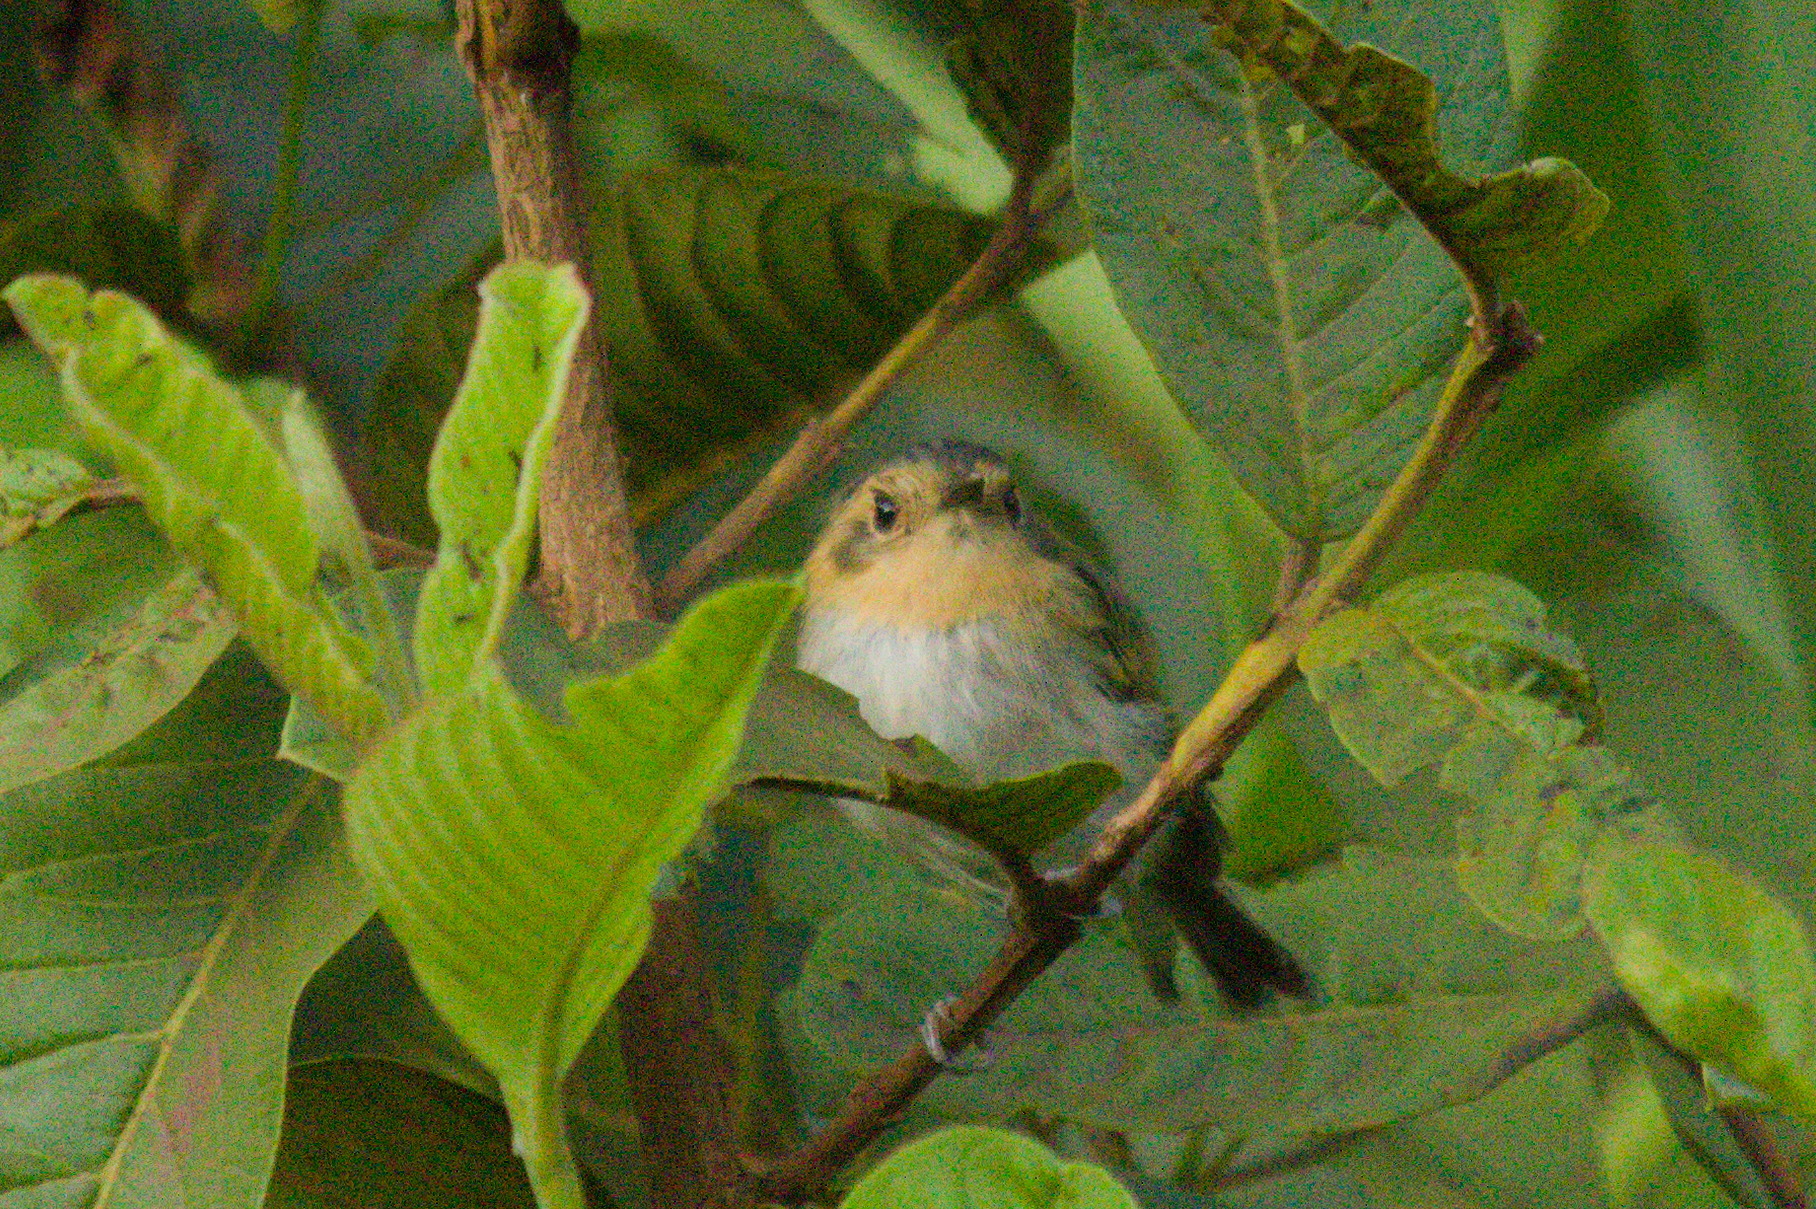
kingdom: Animalia
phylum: Chordata
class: Aves
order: Passeriformes
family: Tyrannidae
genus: Poecilotriccus
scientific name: Poecilotriccus plumbeiceps
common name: Ochre-faced tody-flycatcher
